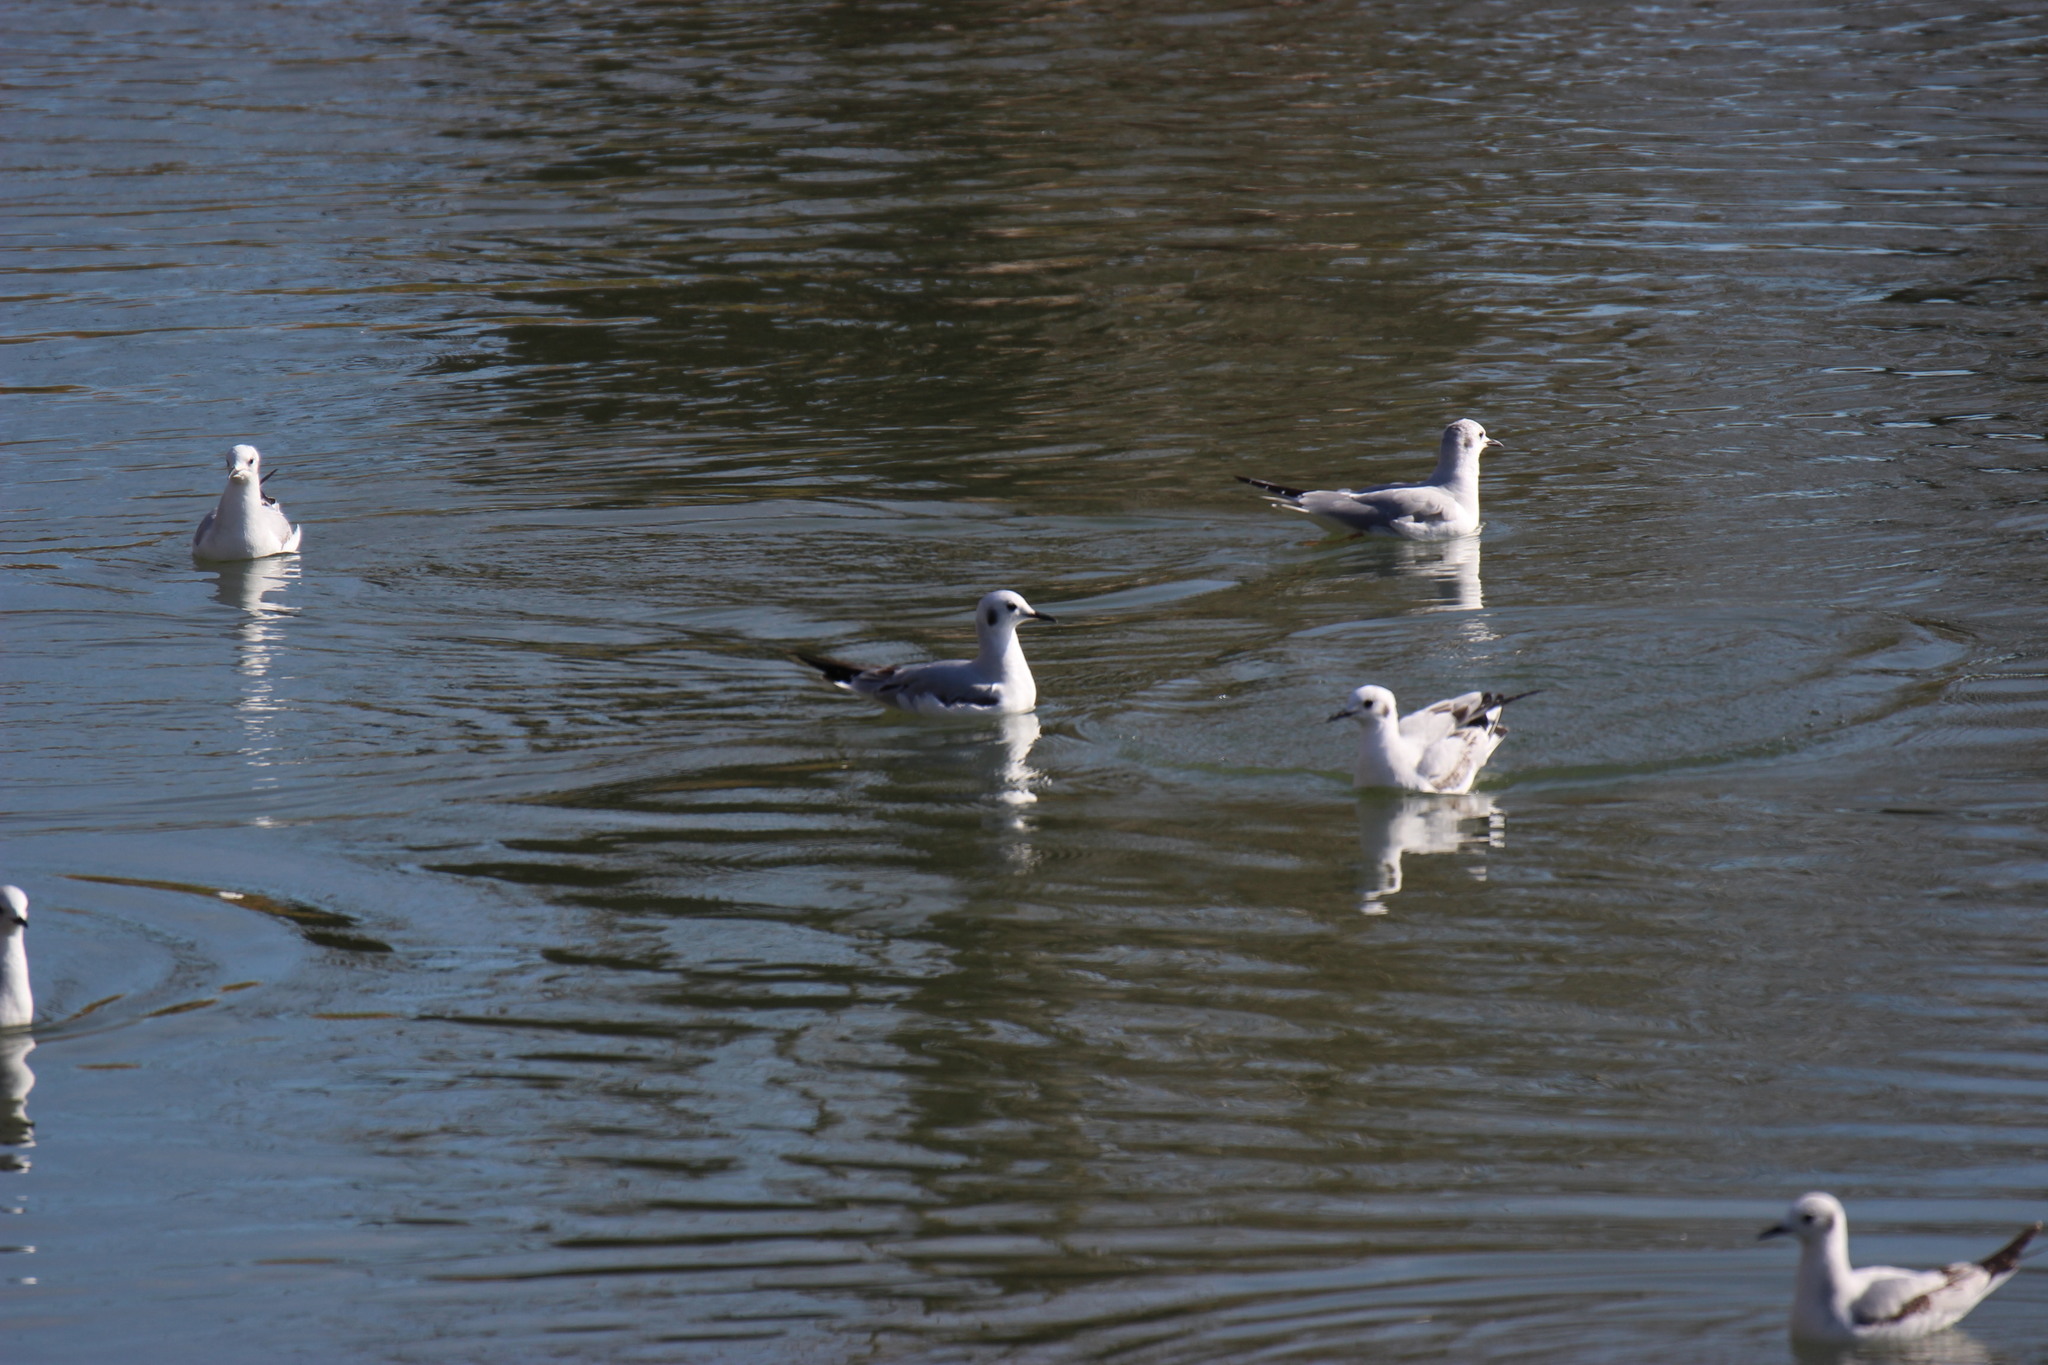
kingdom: Animalia
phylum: Chordata
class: Aves
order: Charadriiformes
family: Laridae
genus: Chroicocephalus
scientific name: Chroicocephalus philadelphia
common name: Bonaparte's gull
